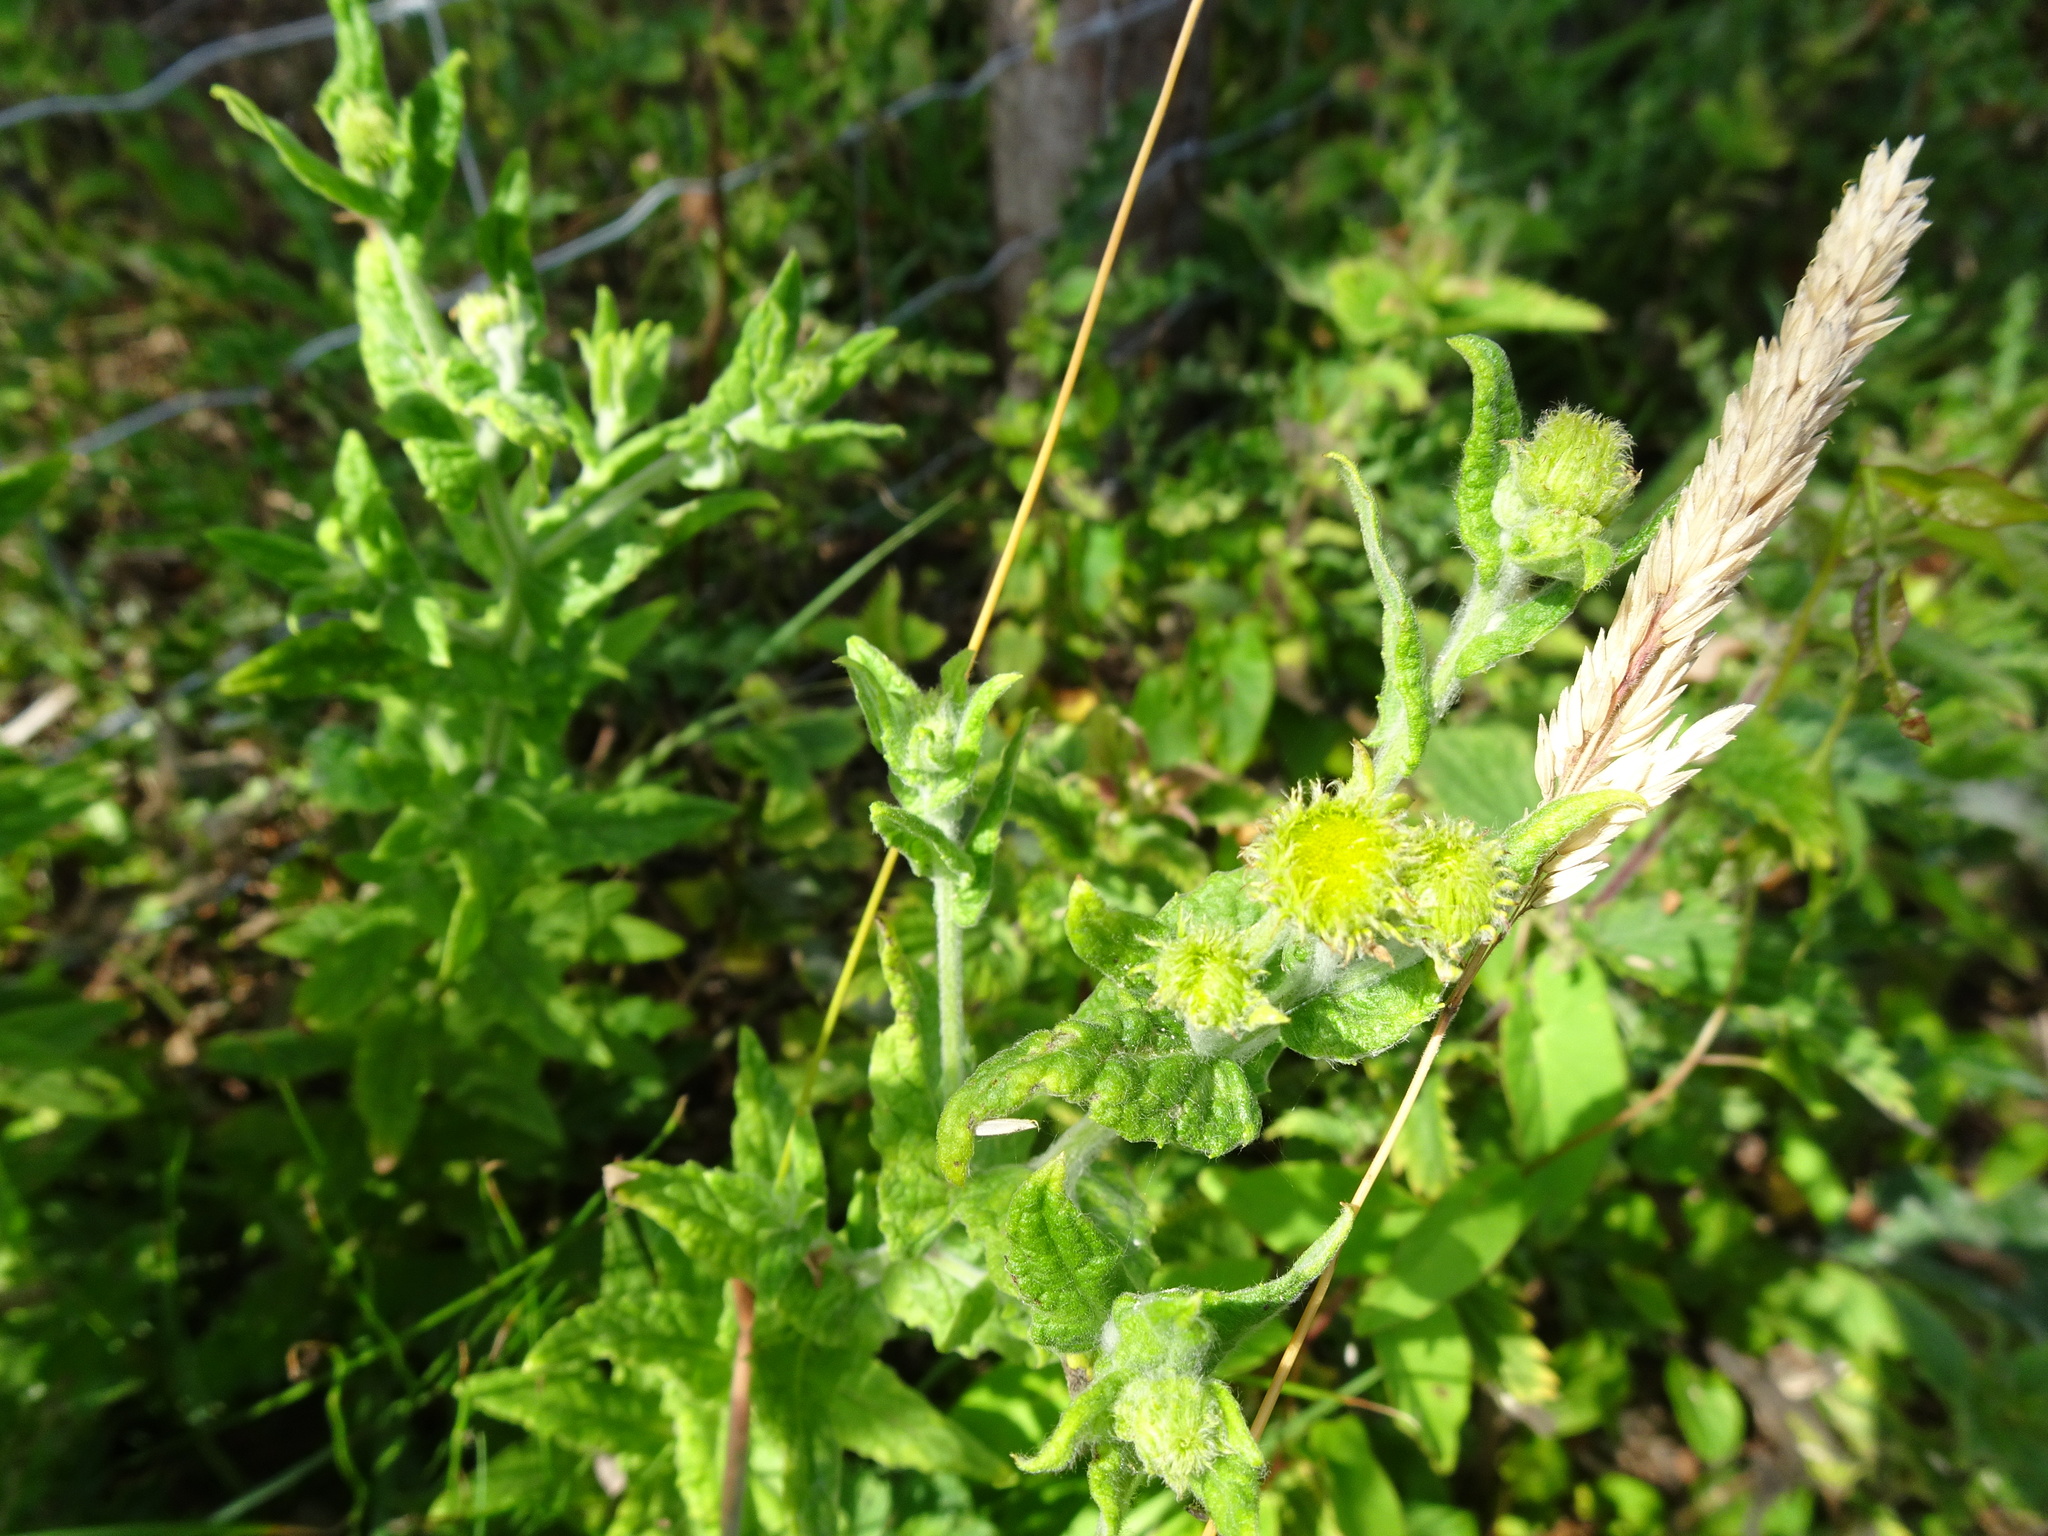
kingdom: Plantae
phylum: Tracheophyta
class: Magnoliopsida
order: Asterales
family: Asteraceae
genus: Pulicaria
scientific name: Pulicaria dysenterica
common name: Common fleabane
